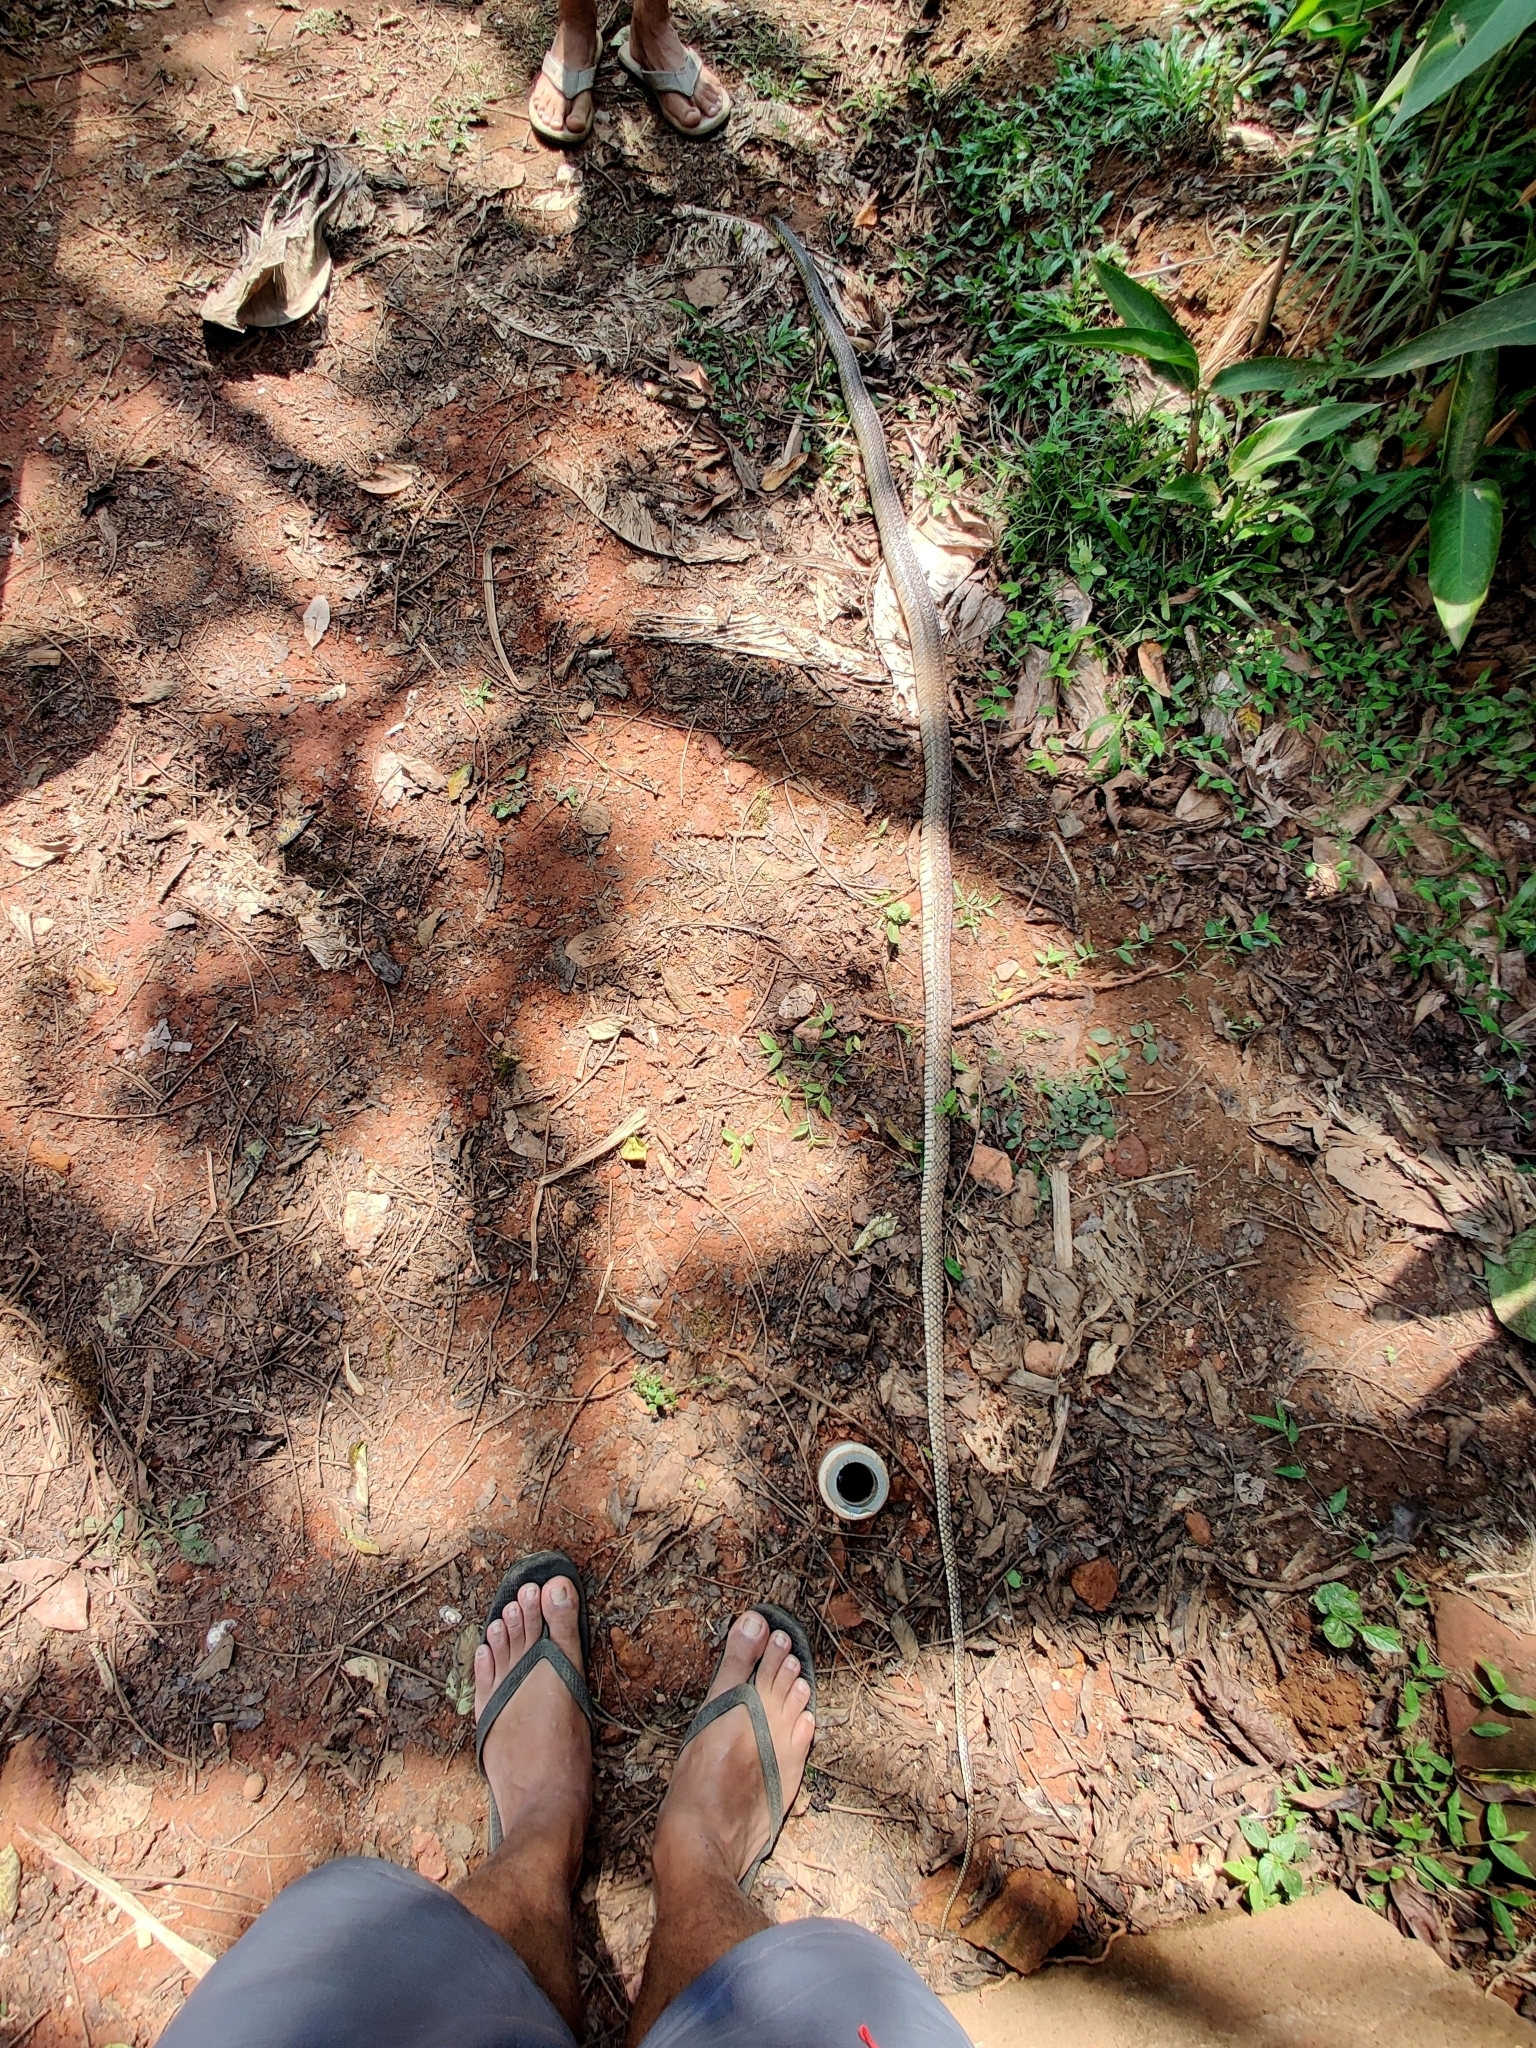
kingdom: Animalia
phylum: Chordata
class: Squamata
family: Colubridae
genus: Ptyas
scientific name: Ptyas mucosa
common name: Oriental ratsnake
